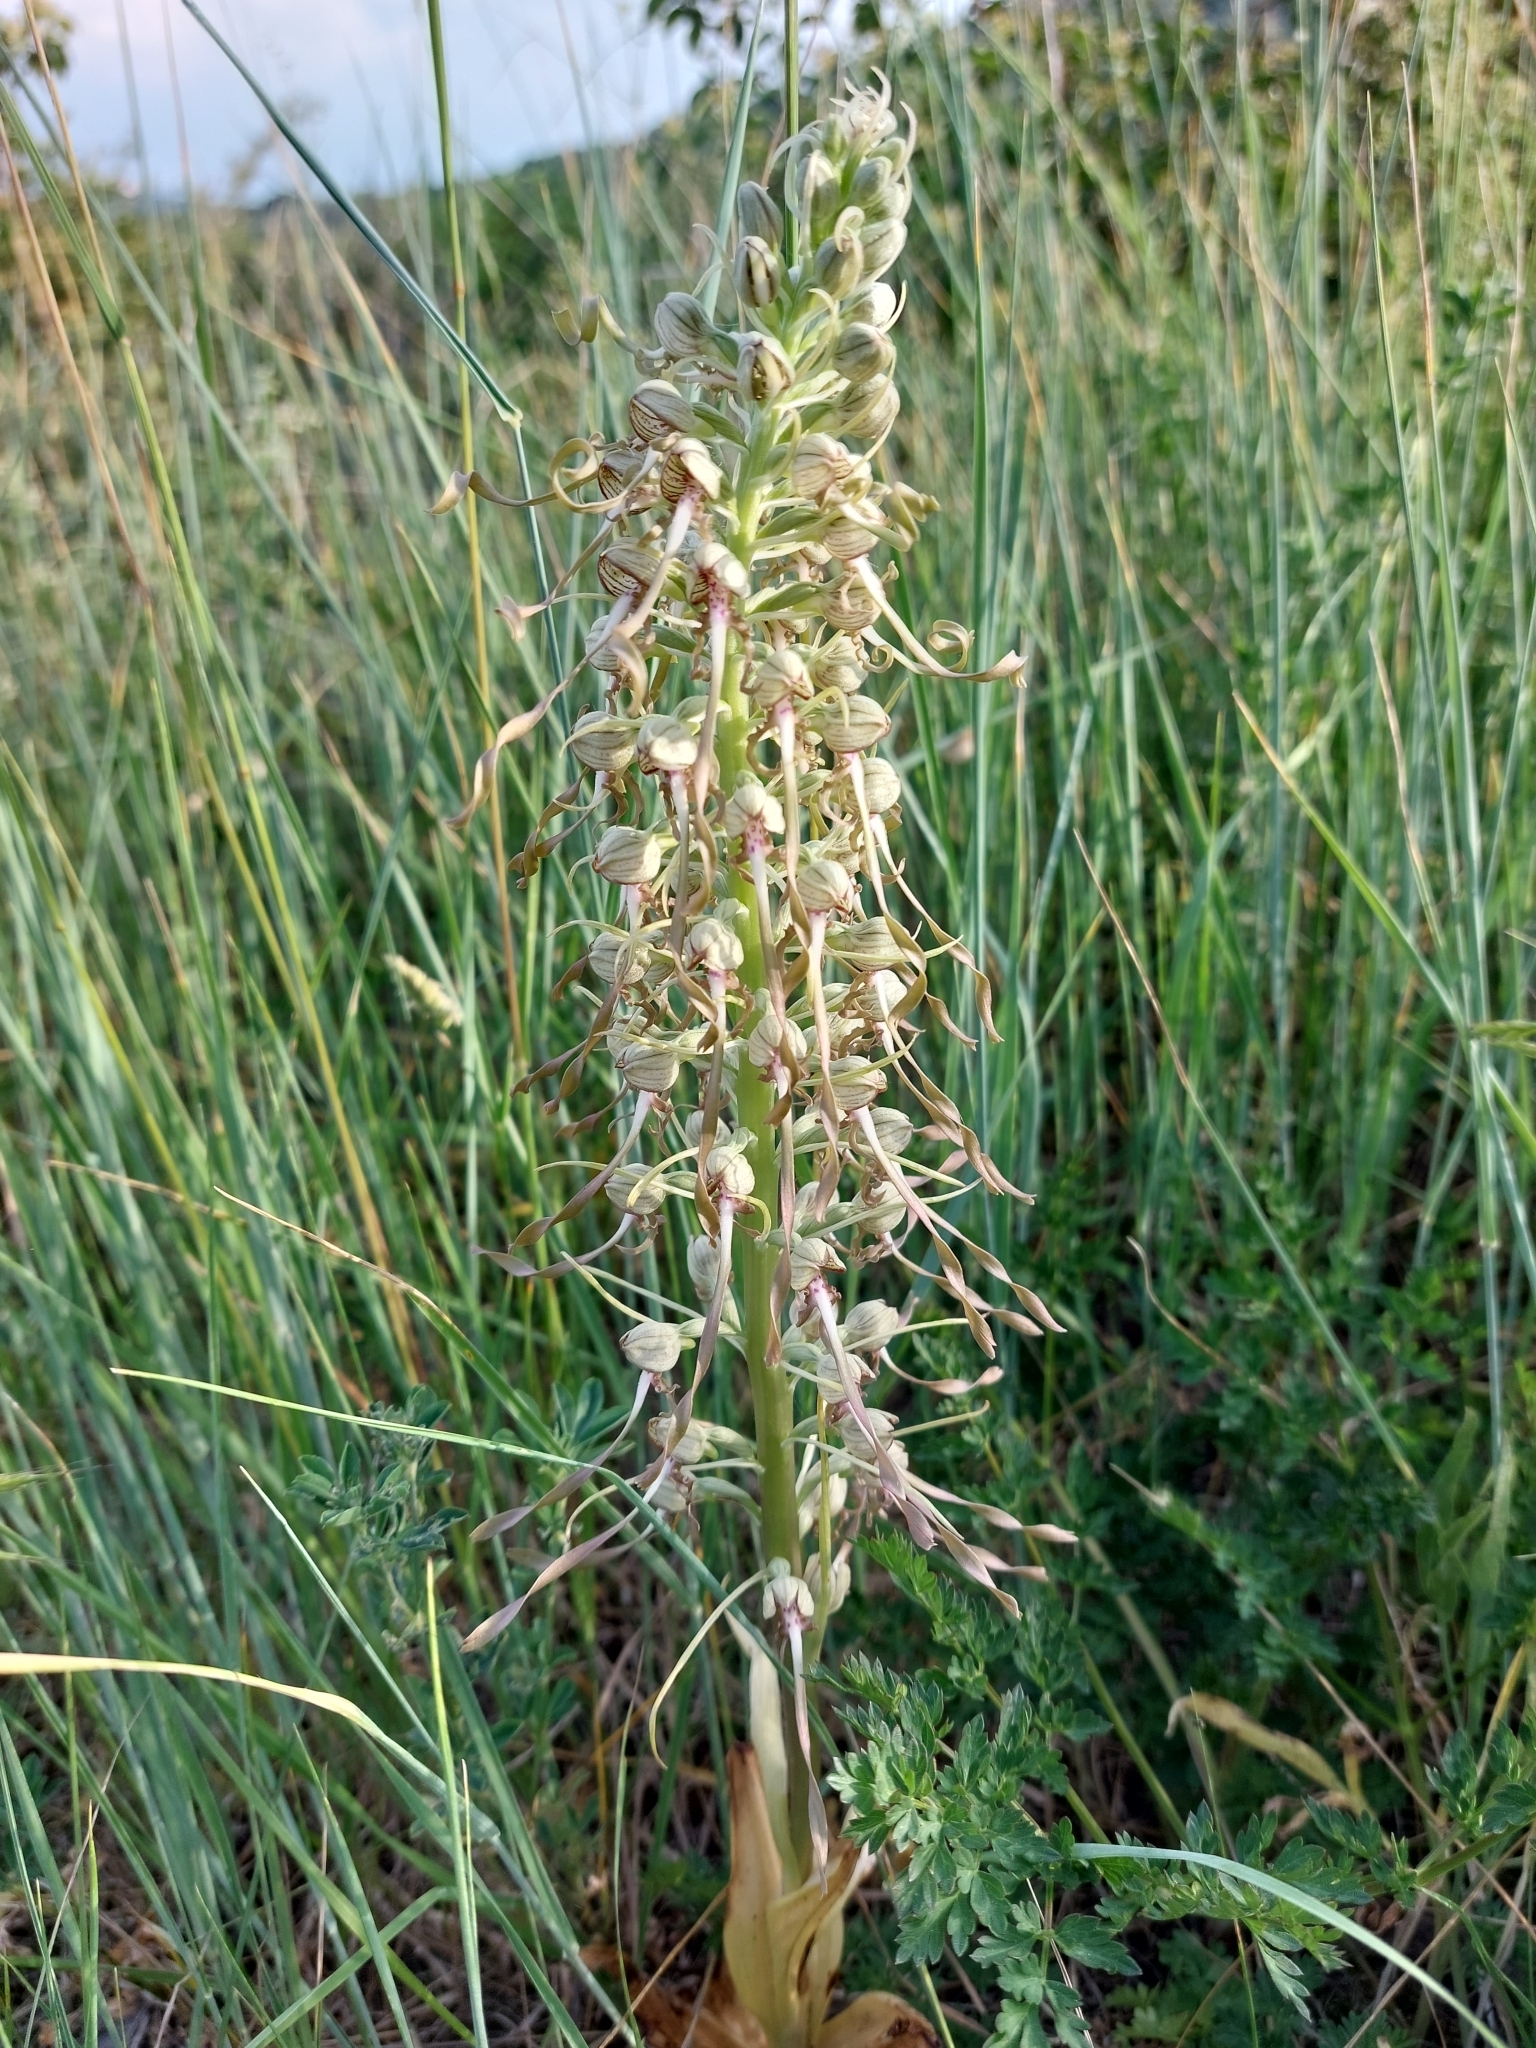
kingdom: Plantae
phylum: Tracheophyta
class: Liliopsida
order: Asparagales
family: Orchidaceae
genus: Himantoglossum
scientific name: Himantoglossum hircinum
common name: Lizard orchid
